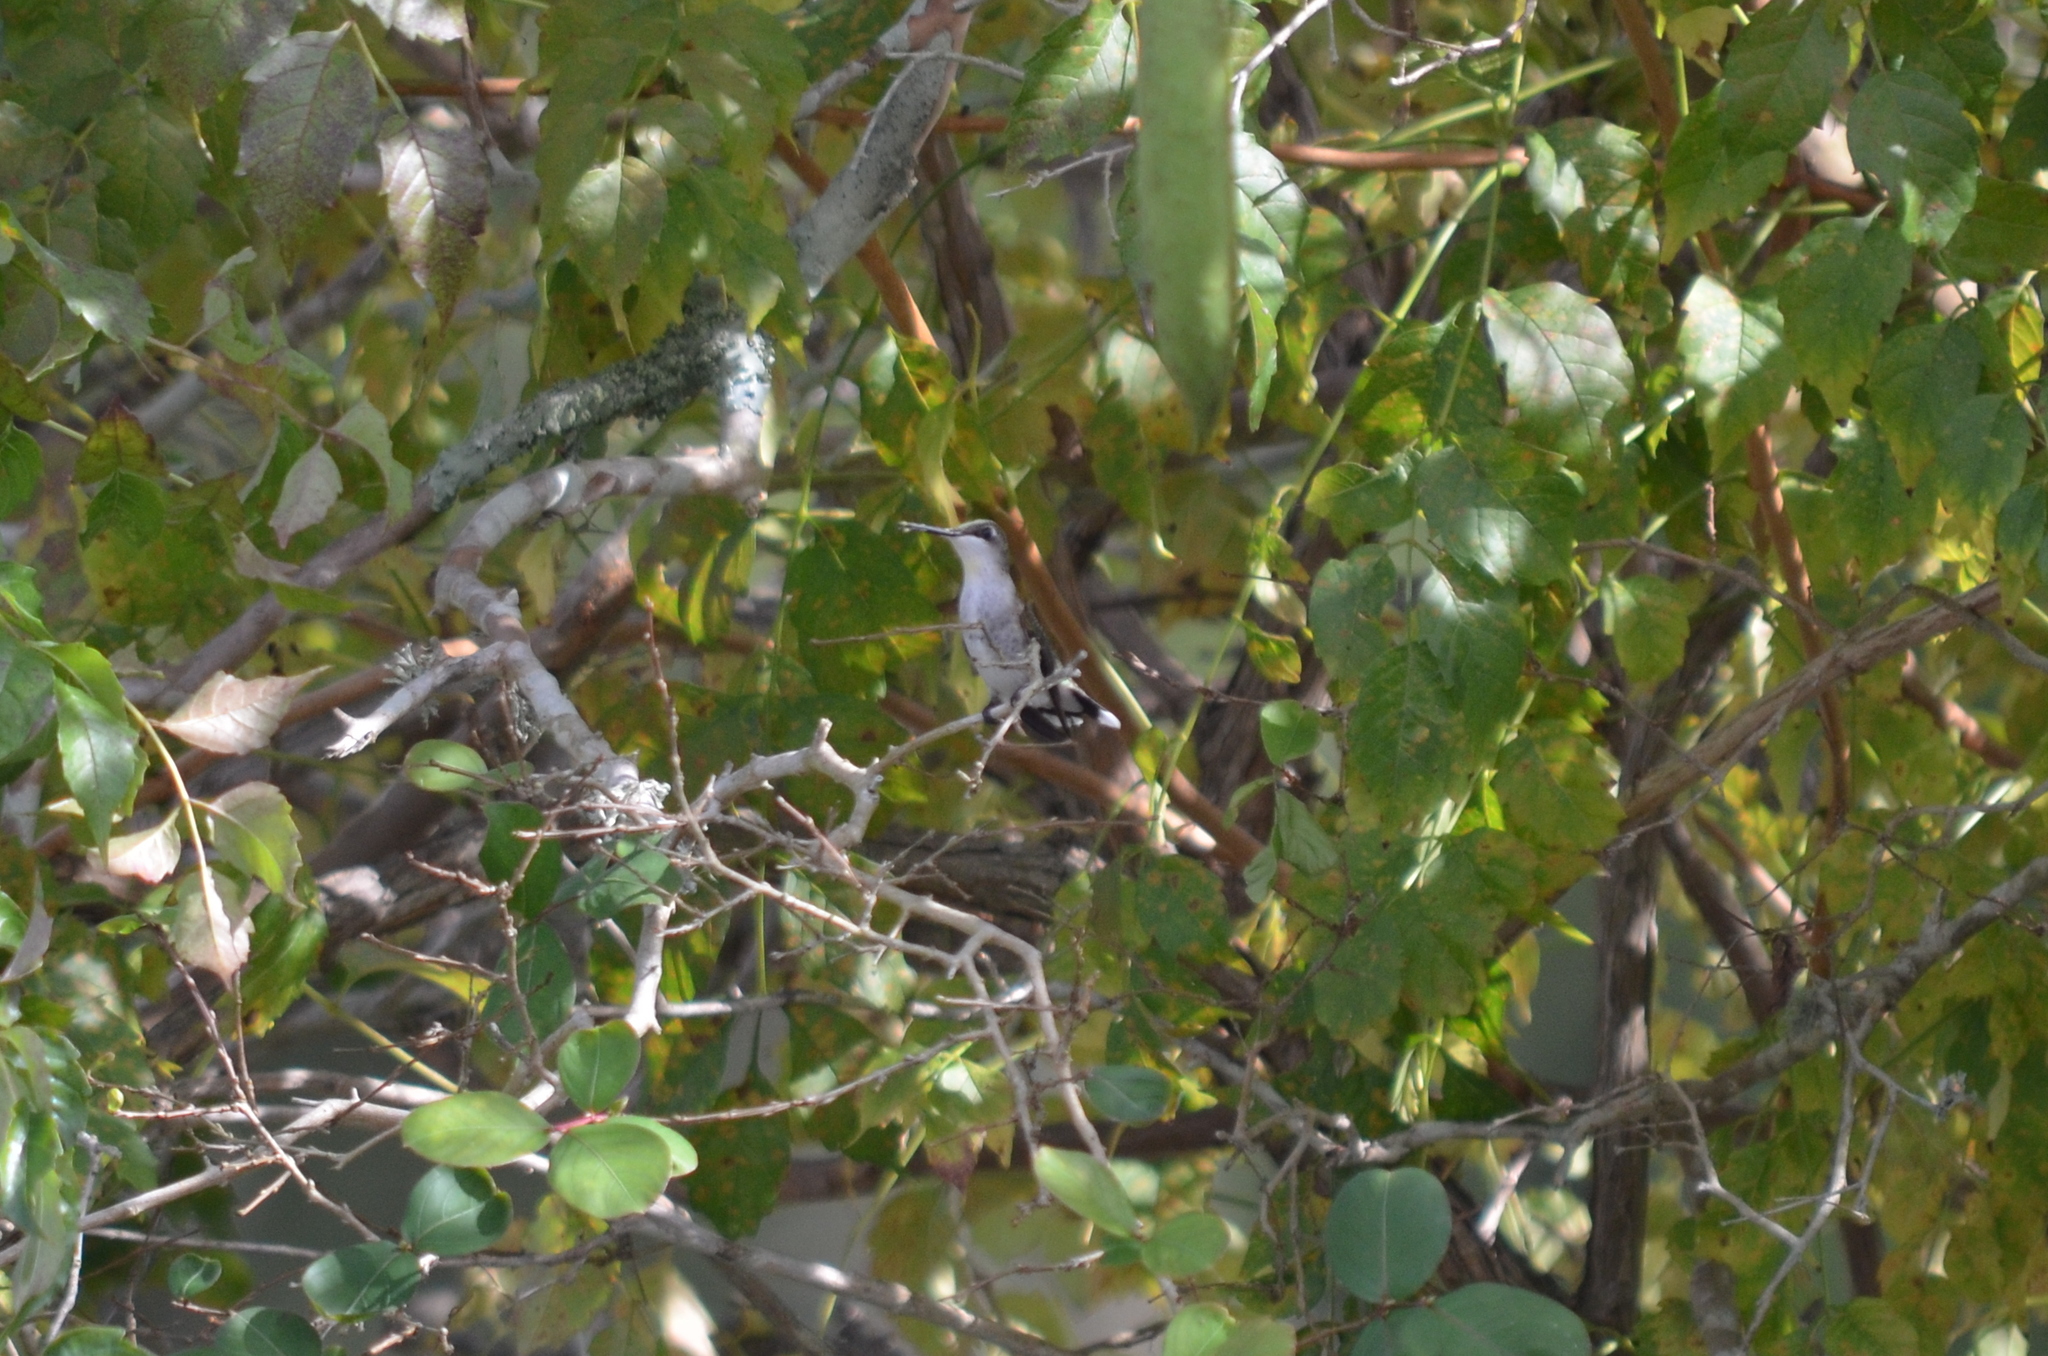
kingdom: Animalia
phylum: Chordata
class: Aves
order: Apodiformes
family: Trochilidae
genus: Archilochus
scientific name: Archilochus colubris
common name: Ruby-throated hummingbird
